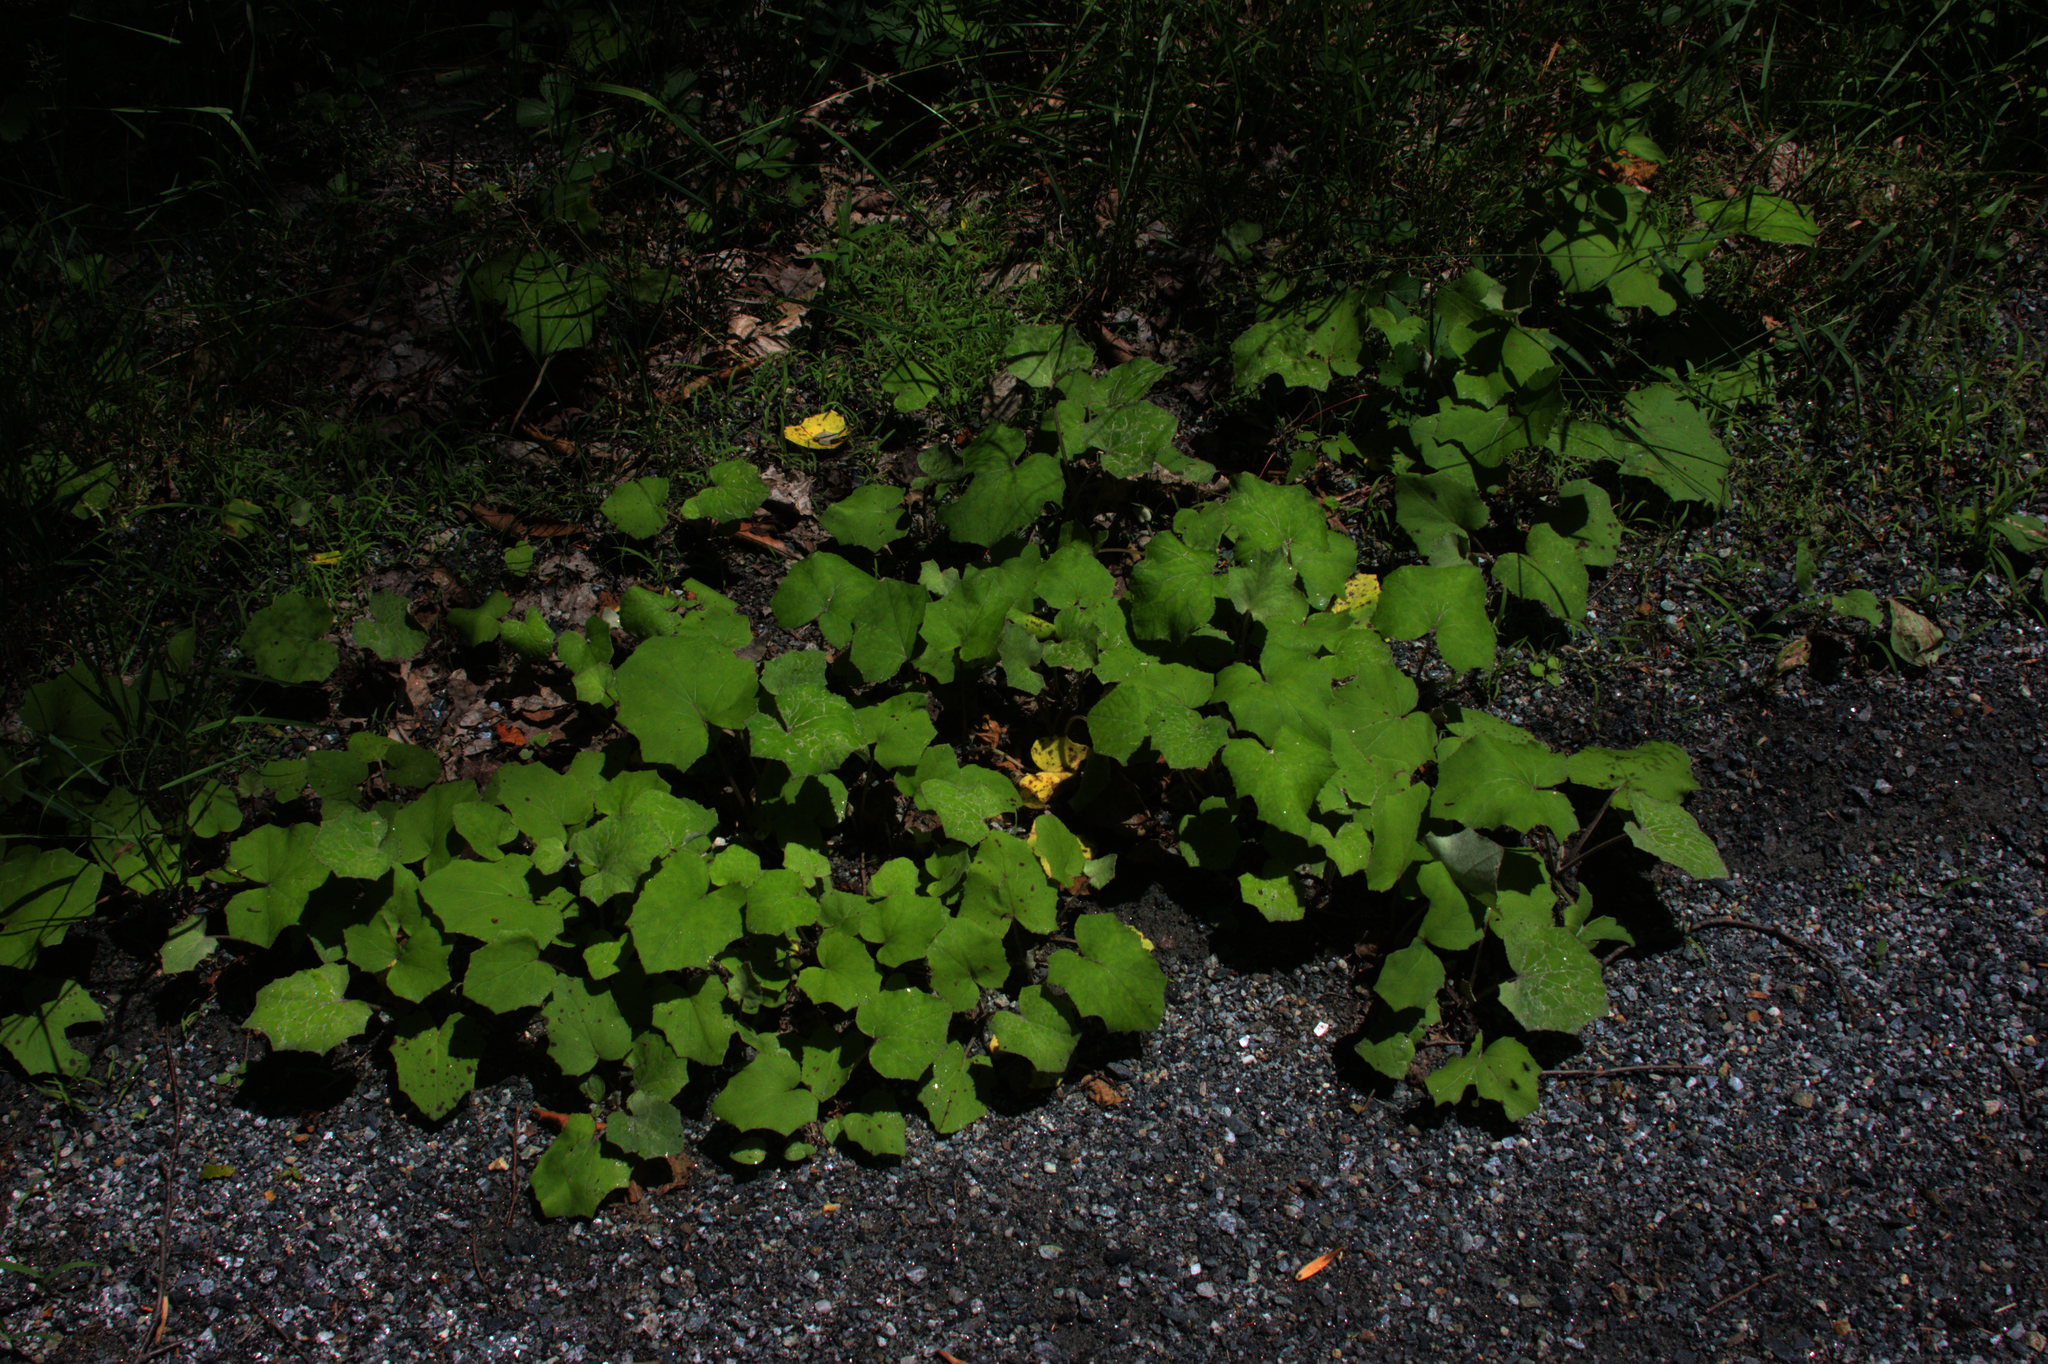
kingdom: Plantae
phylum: Tracheophyta
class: Magnoliopsida
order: Asterales
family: Asteraceae
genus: Tussilago
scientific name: Tussilago farfara
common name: Coltsfoot
